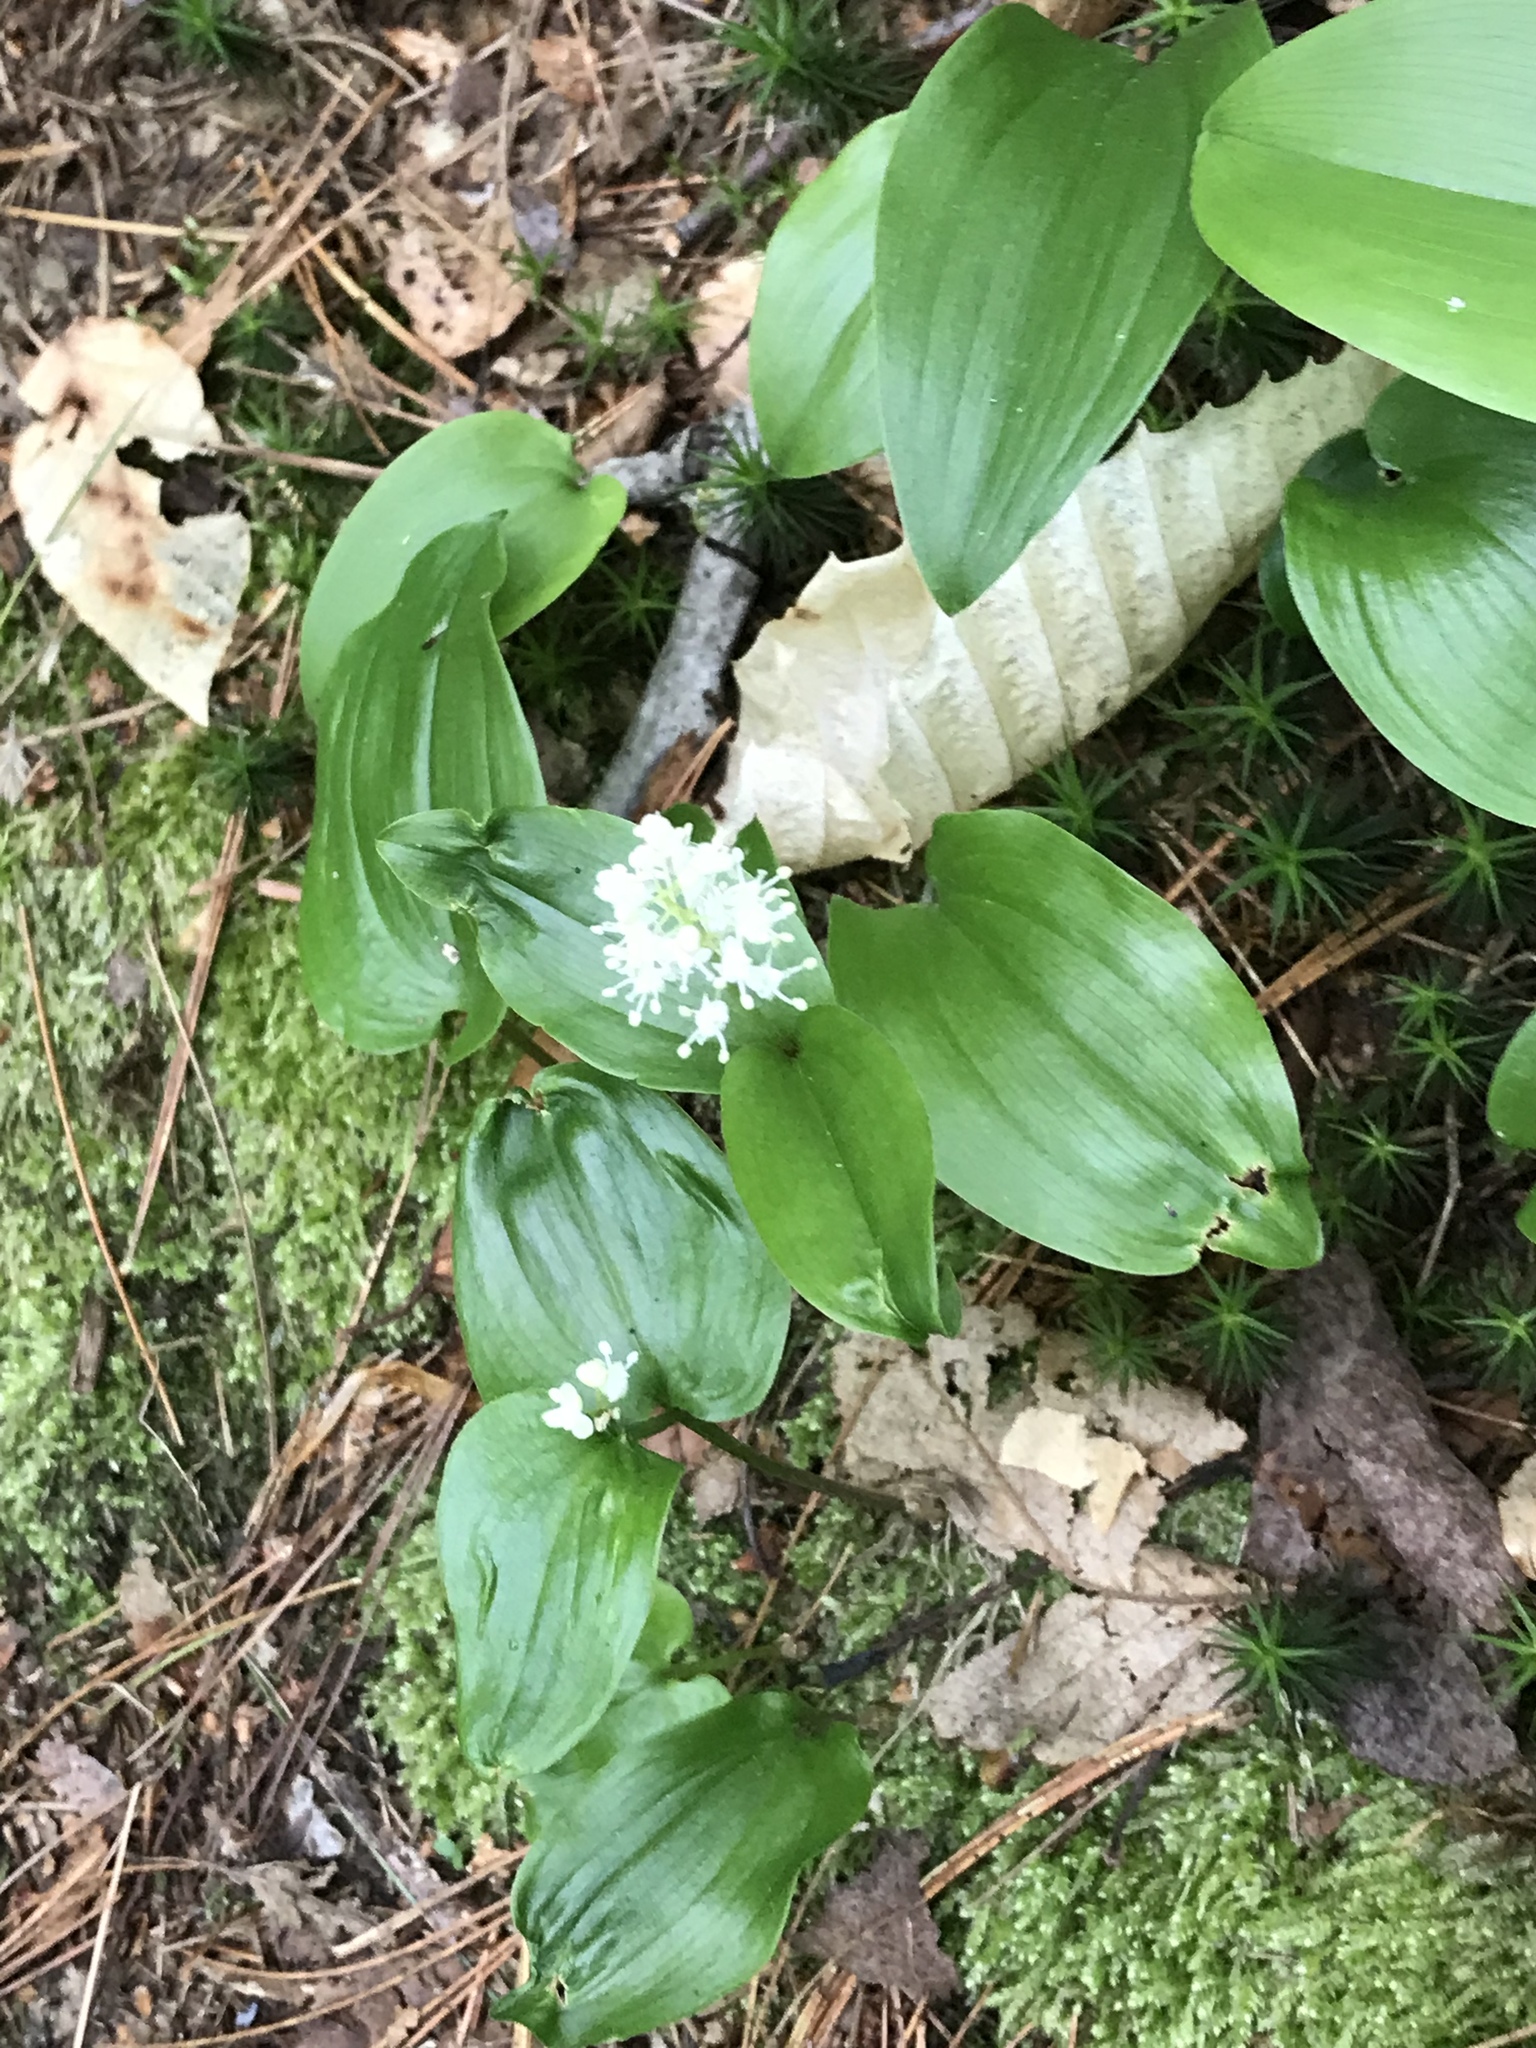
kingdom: Plantae
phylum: Tracheophyta
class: Liliopsida
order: Asparagales
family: Asparagaceae
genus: Maianthemum
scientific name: Maianthemum canadense
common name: False lily-of-the-valley
